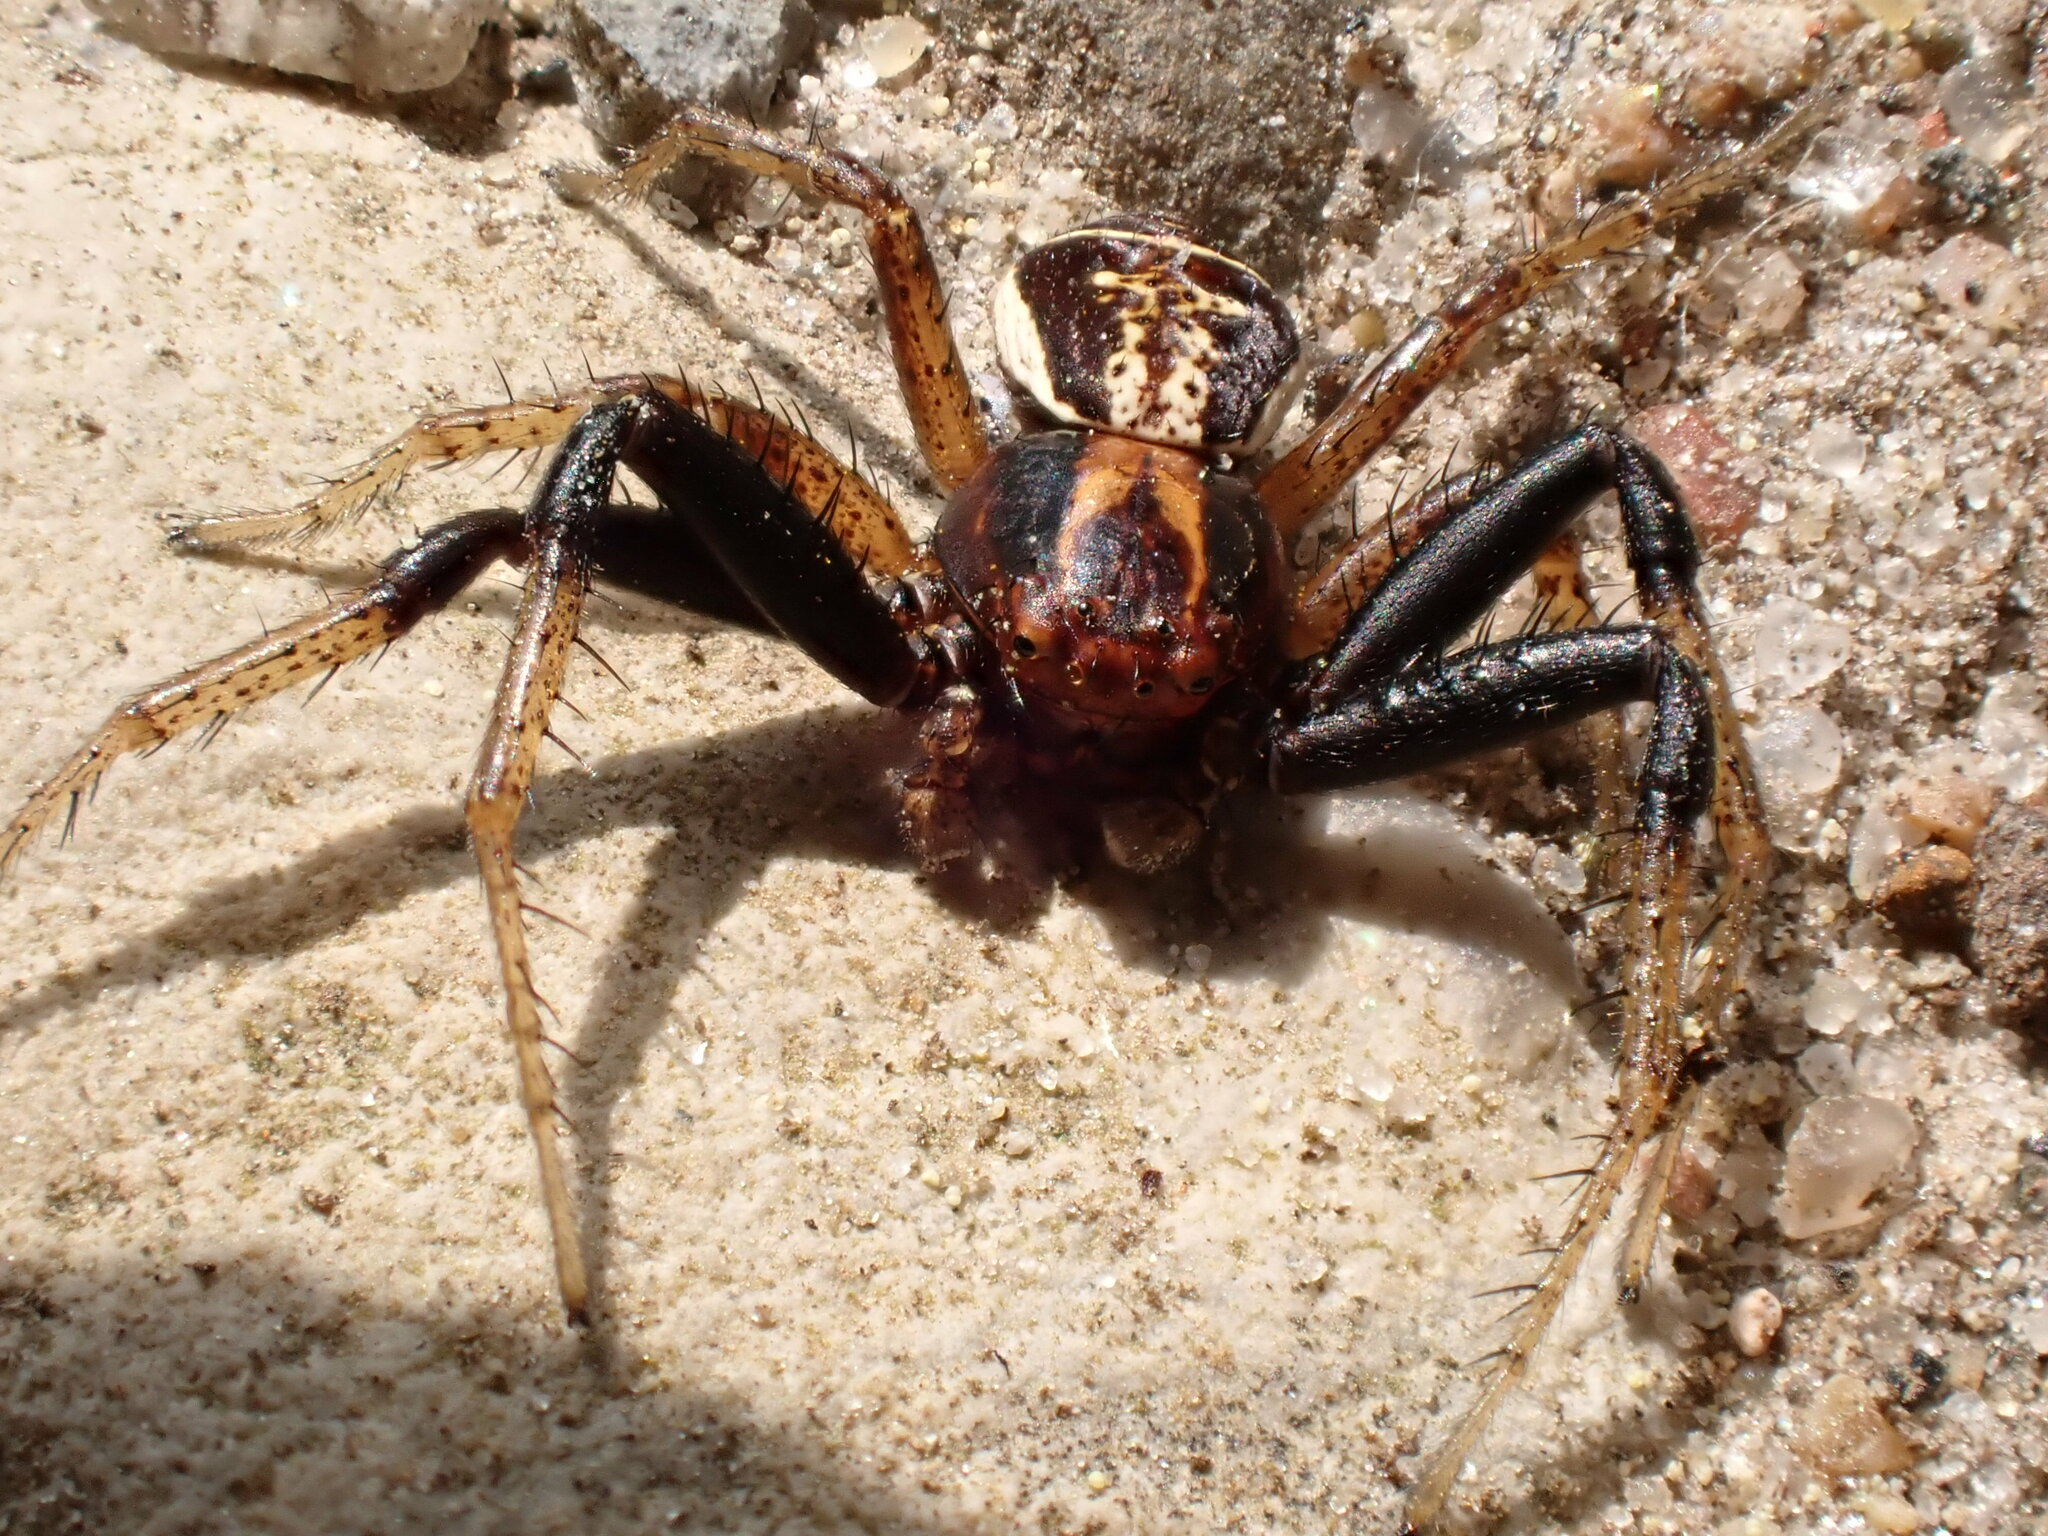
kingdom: Animalia
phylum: Arthropoda
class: Arachnida
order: Araneae
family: Thomisidae
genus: Xysticus
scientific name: Xysticus ulmi
